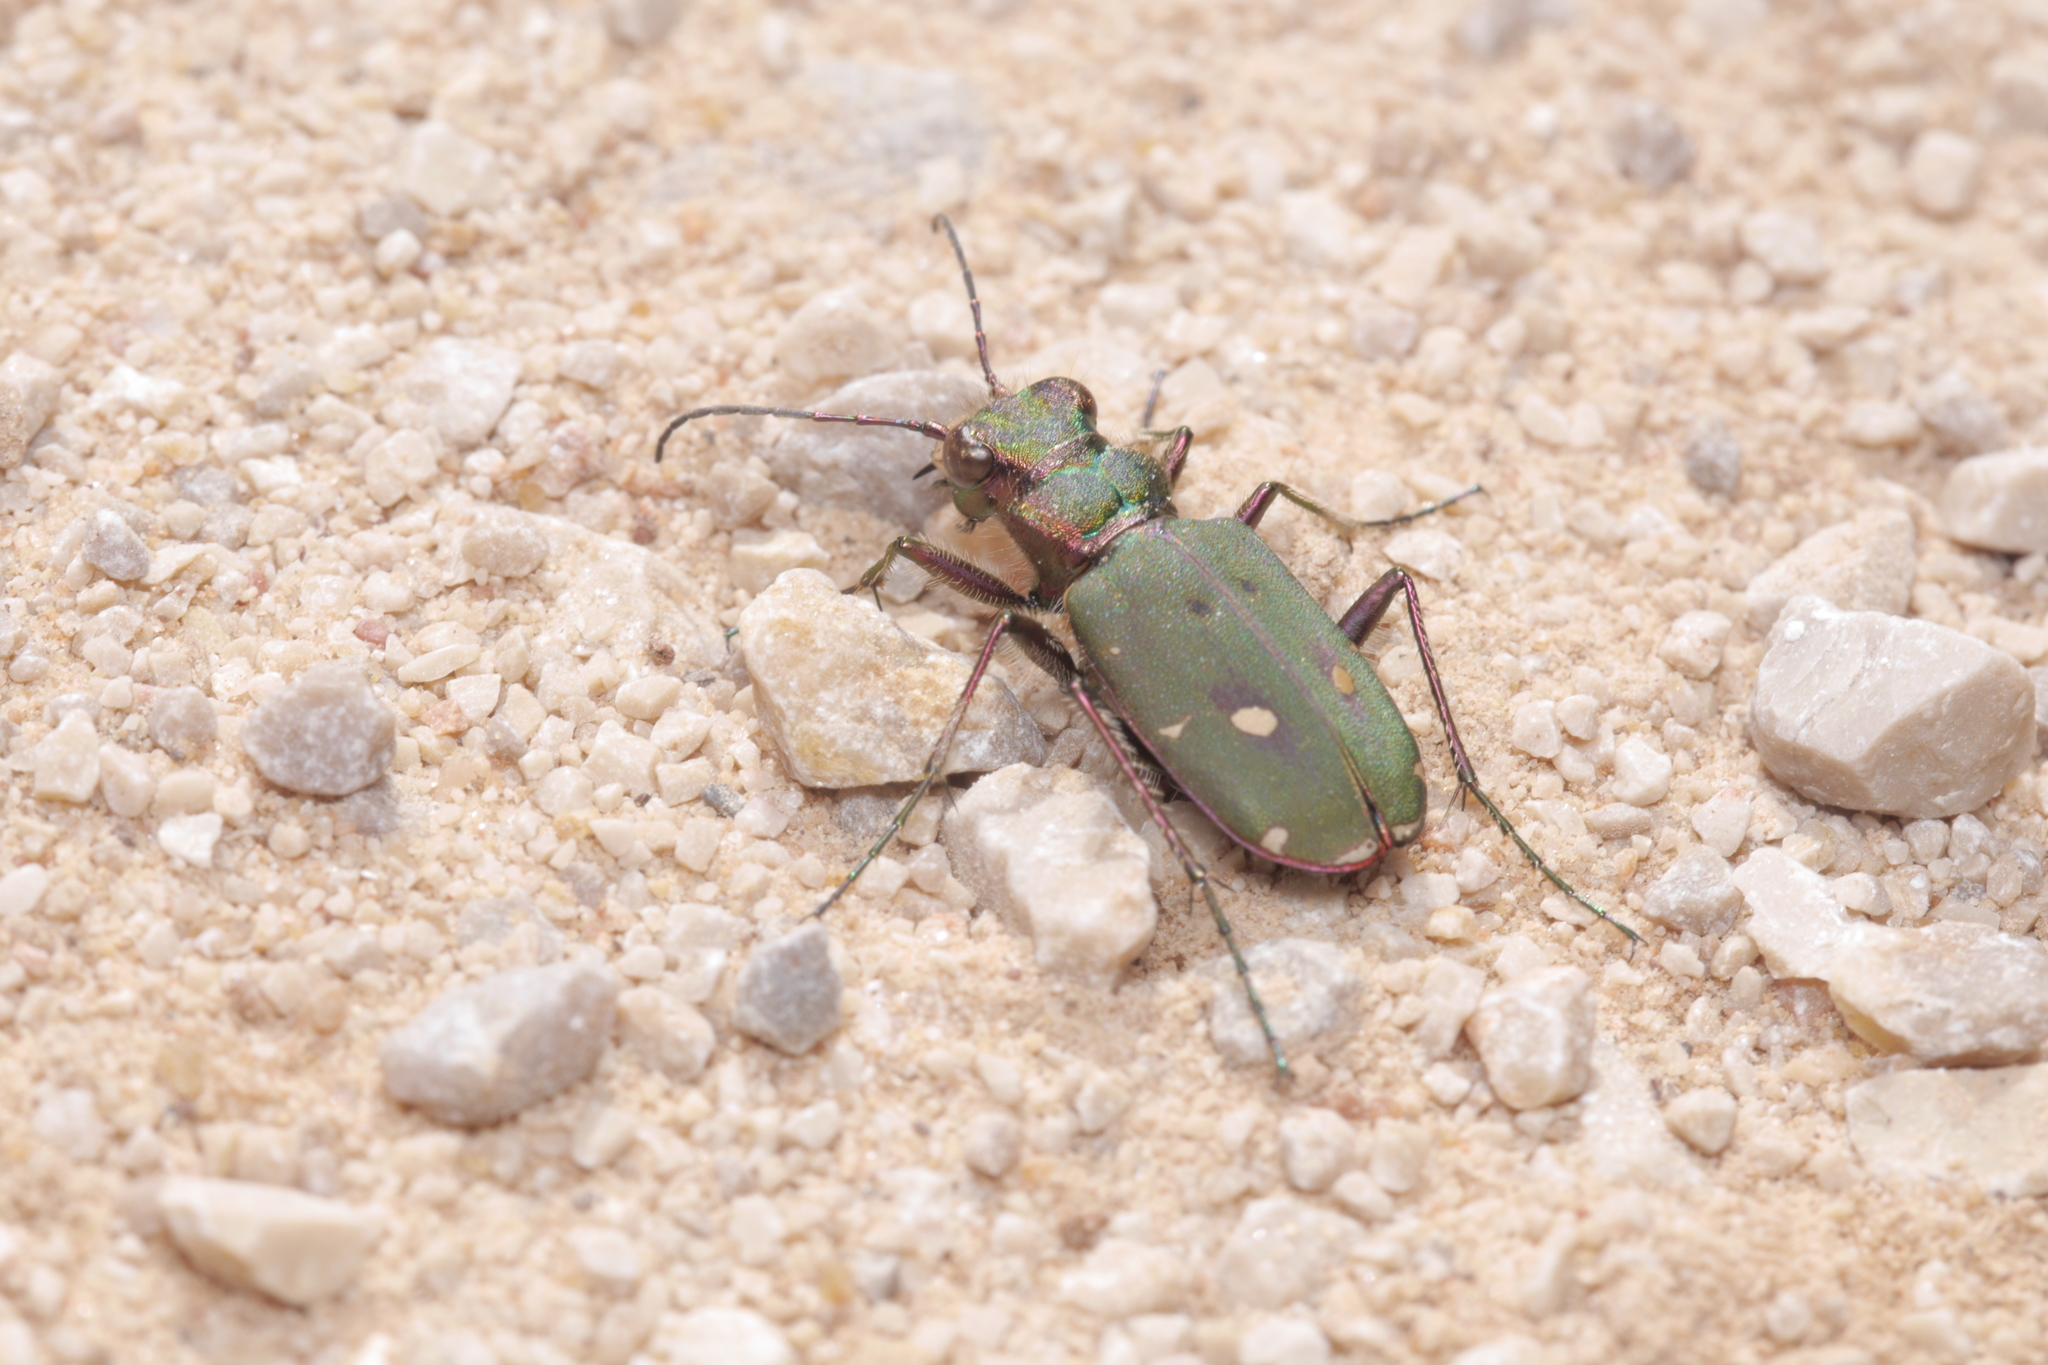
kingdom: Animalia
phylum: Arthropoda
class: Insecta
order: Coleoptera
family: Carabidae
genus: Cicindela
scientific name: Cicindela campestris
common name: Common tiger beetle
